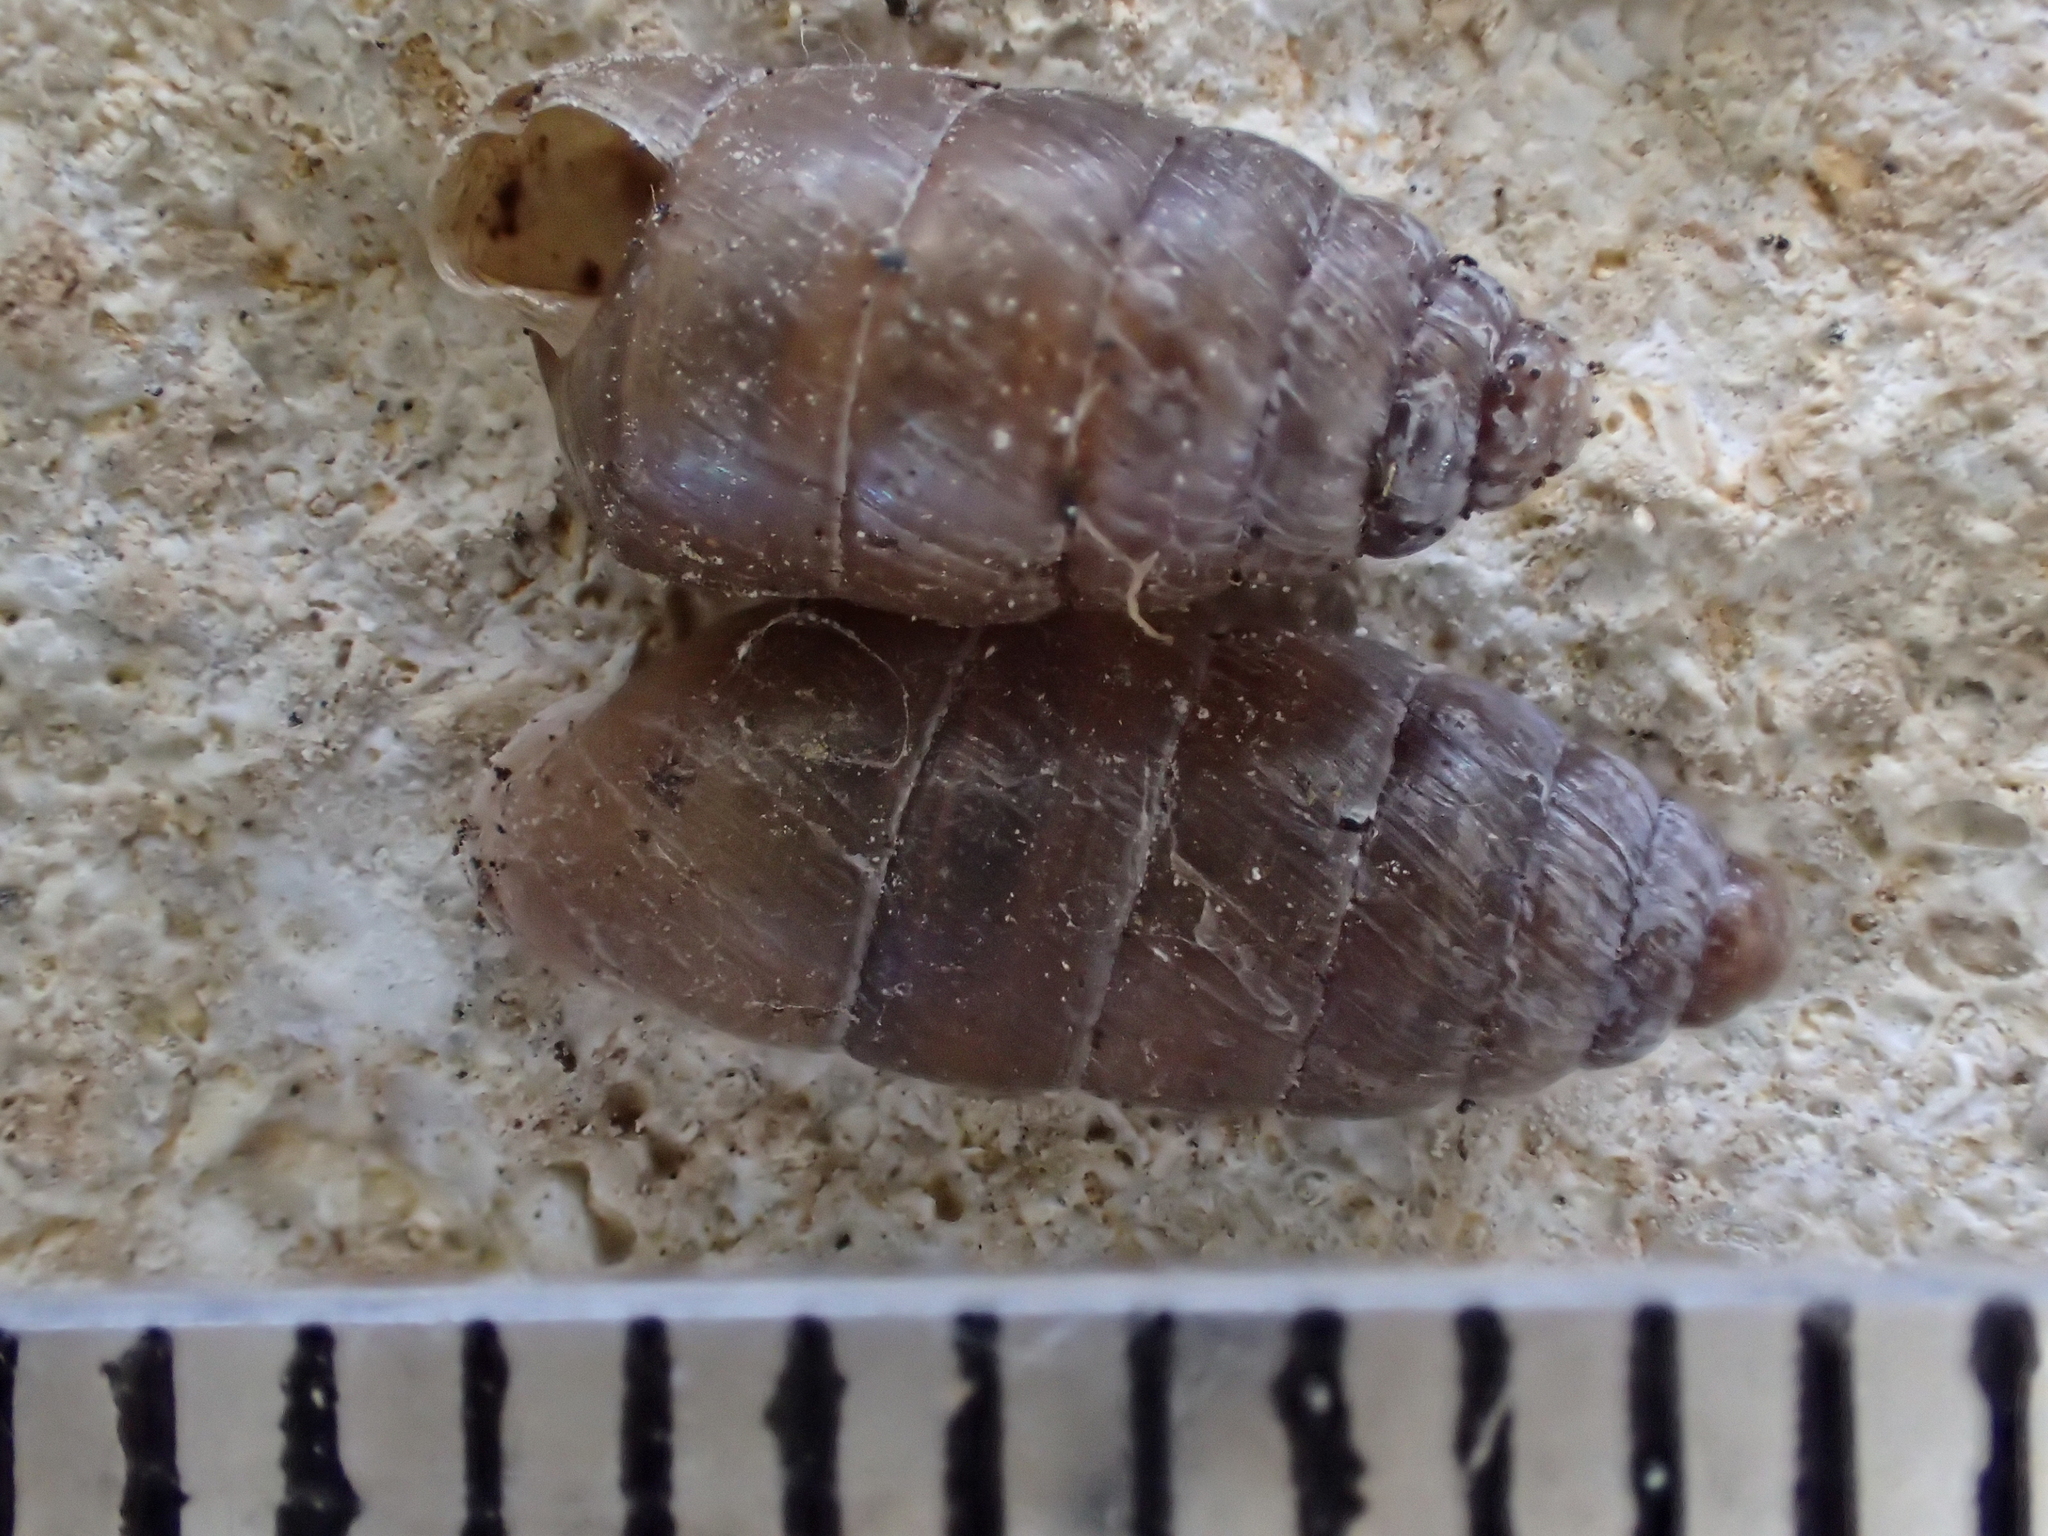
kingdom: Animalia
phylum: Mollusca
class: Gastropoda
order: Stylommatophora
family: Enidae
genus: Jaminia
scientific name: Jaminia quadridens
